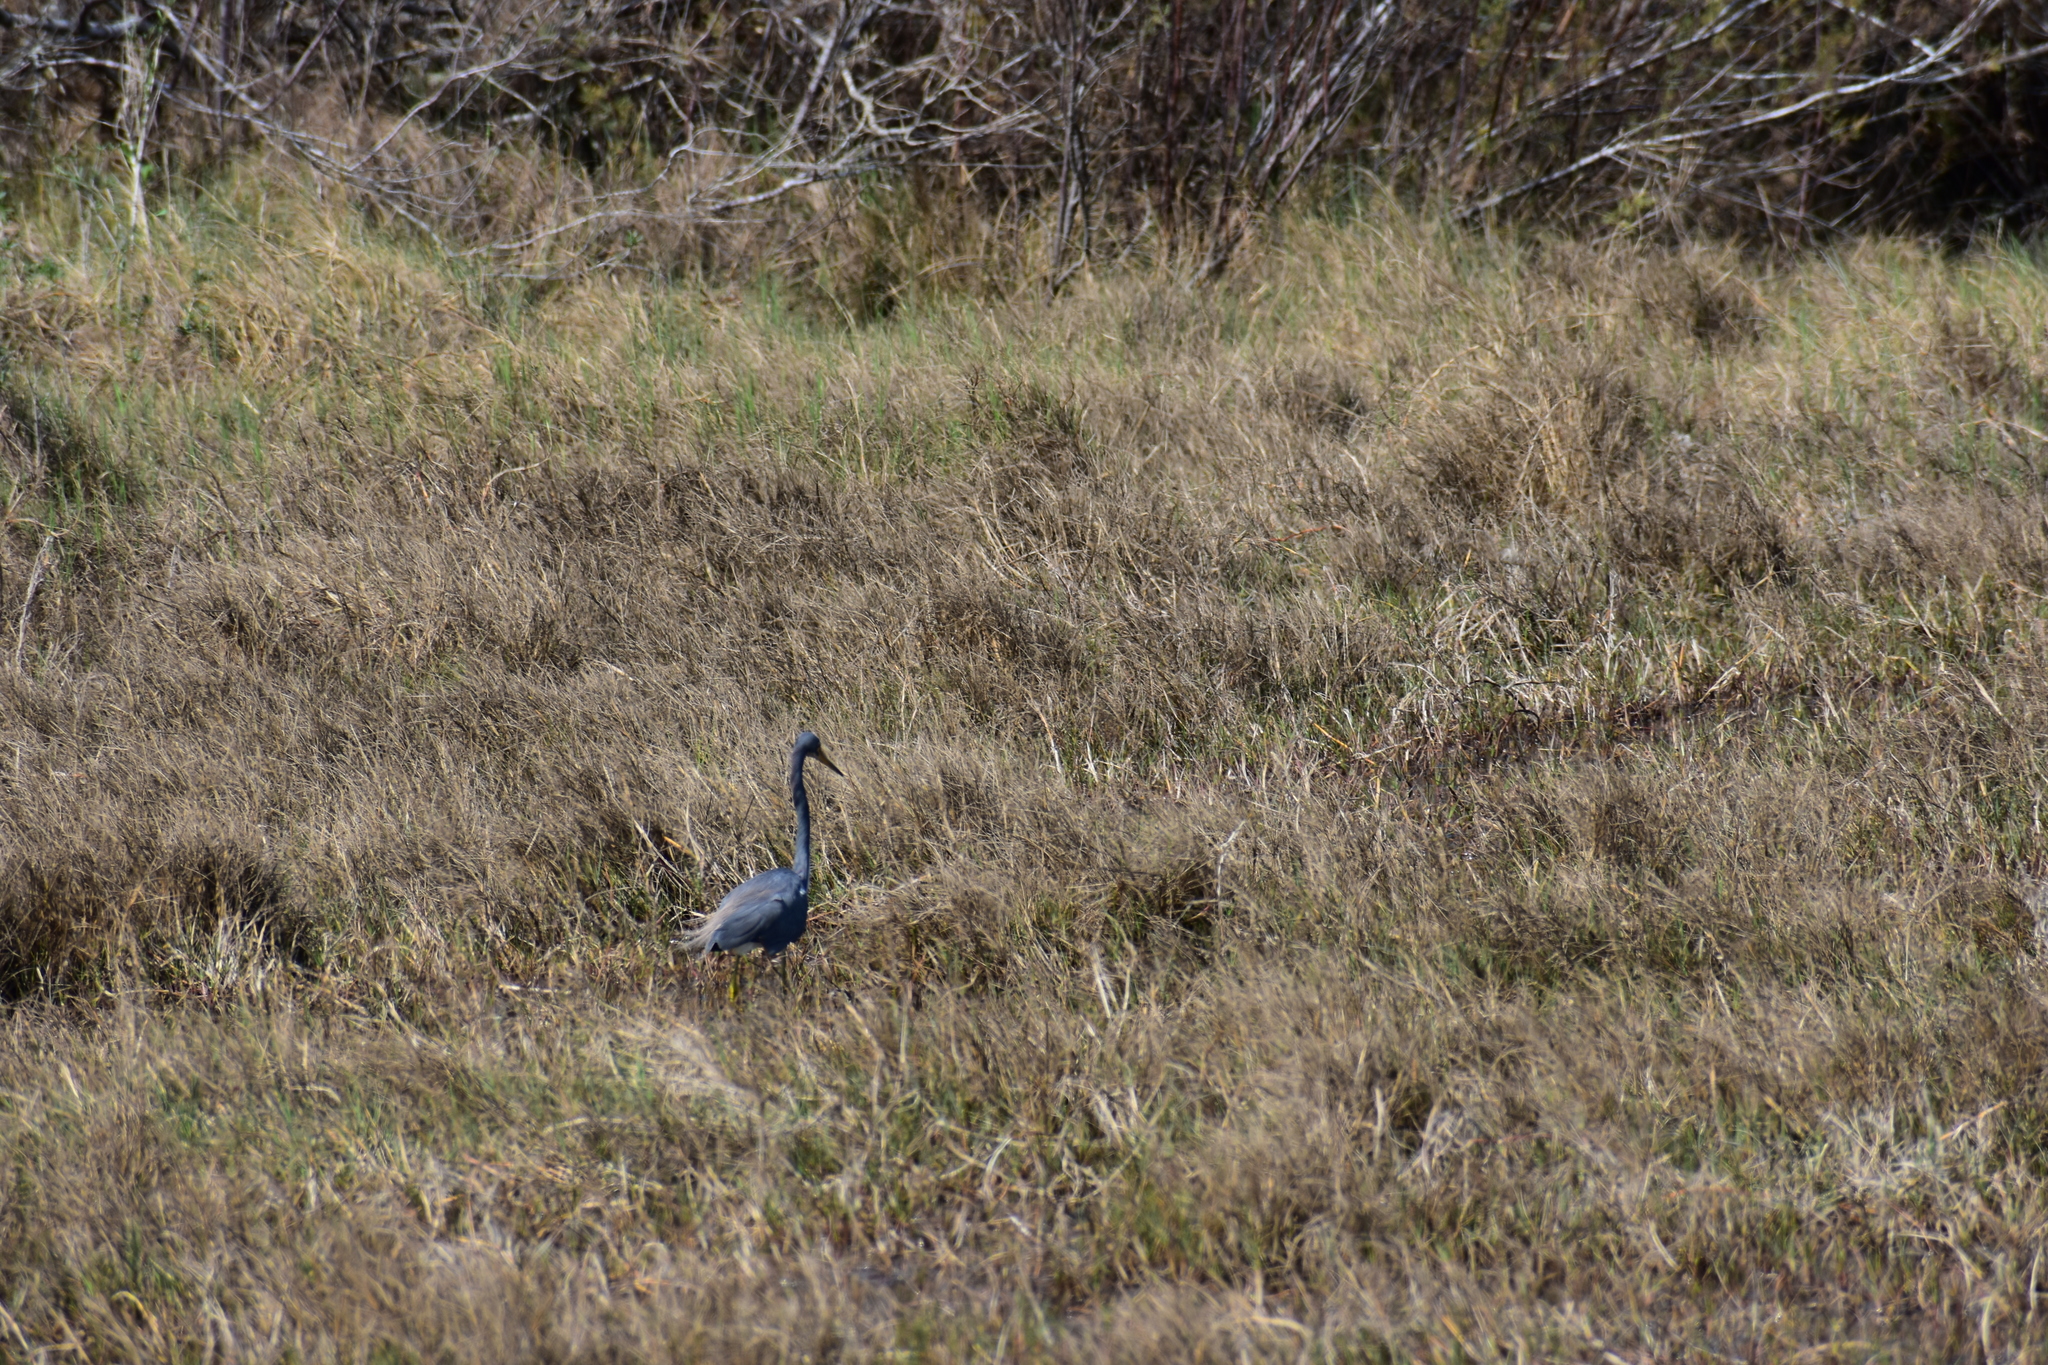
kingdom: Animalia
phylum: Chordata
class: Aves
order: Pelecaniformes
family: Ardeidae
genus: Egretta
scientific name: Egretta tricolor
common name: Tricolored heron
